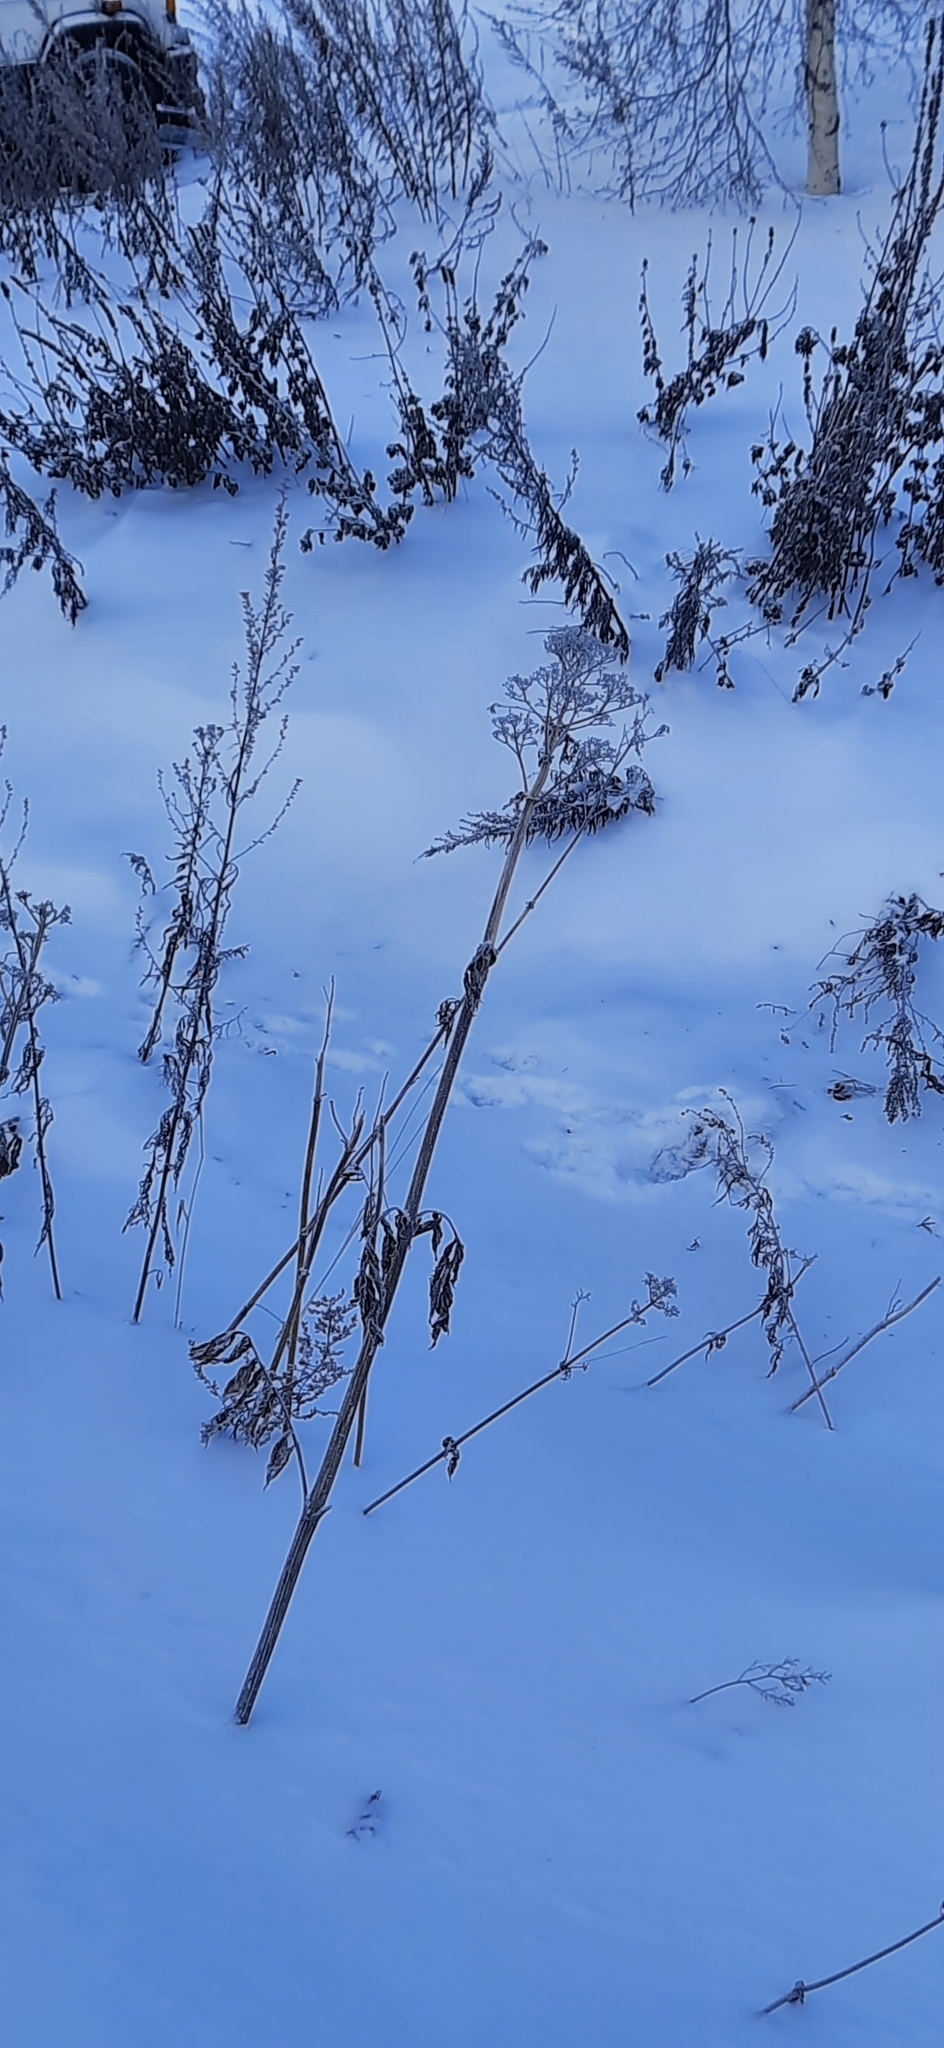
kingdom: Plantae
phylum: Tracheophyta
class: Magnoliopsida
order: Dipsacales
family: Caprifoliaceae
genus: Valeriana
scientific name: Valeriana officinalis
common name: Common valerian
